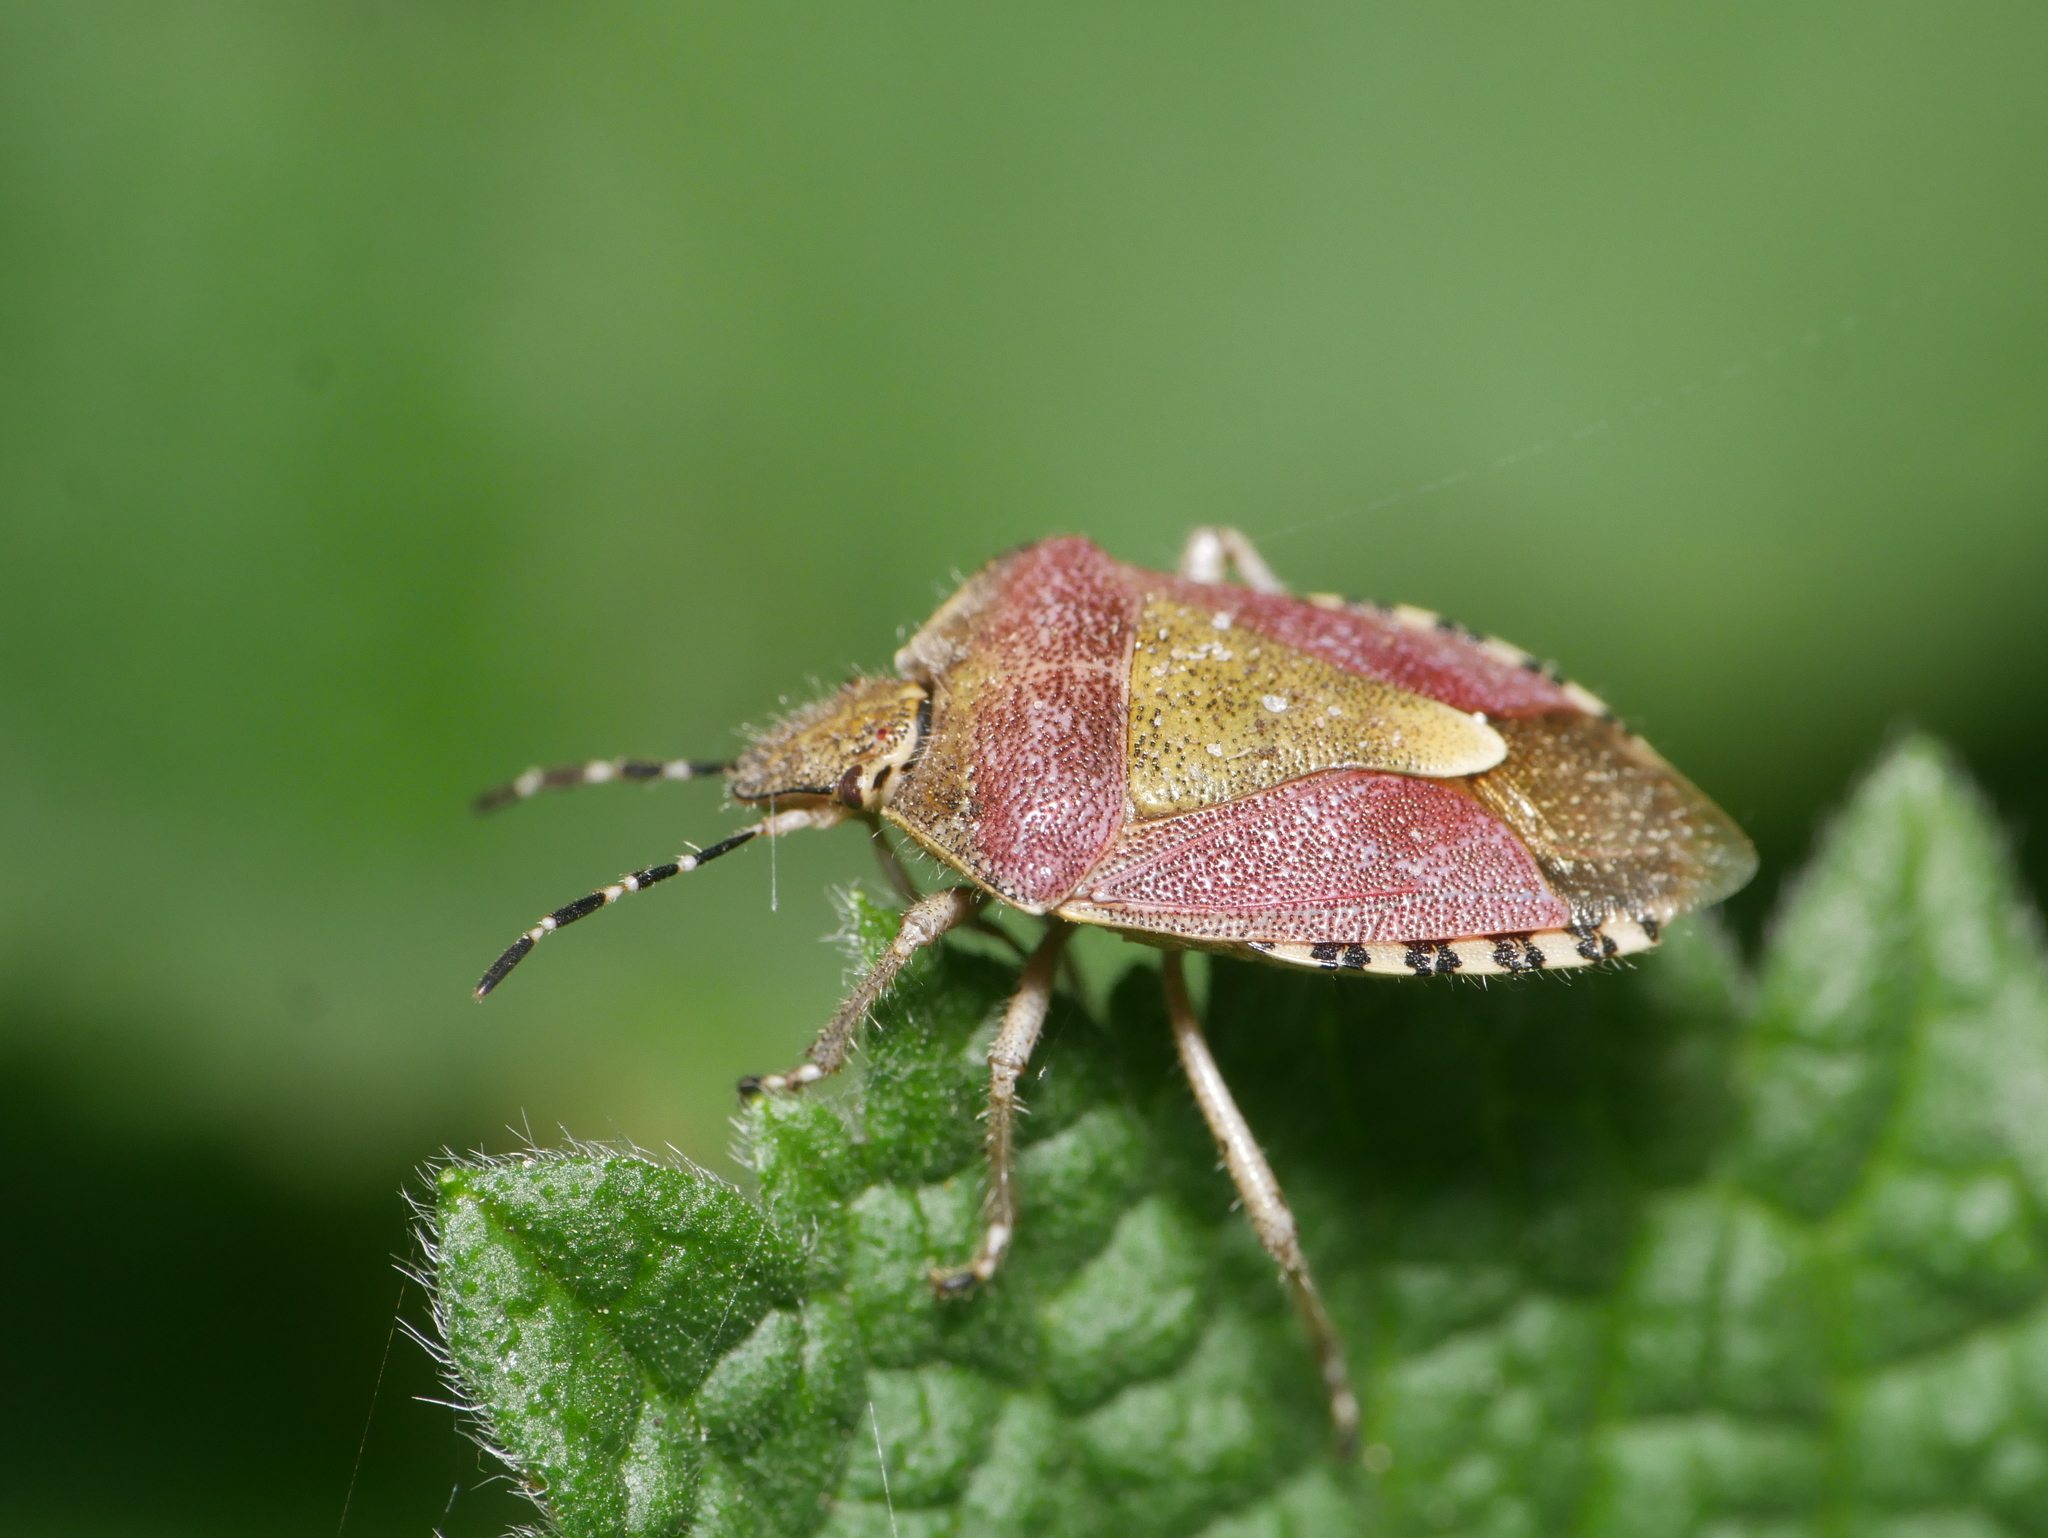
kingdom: Animalia
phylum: Arthropoda
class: Insecta
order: Hemiptera
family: Pentatomidae
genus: Dolycoris
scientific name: Dolycoris baccarum
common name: Sloe bug
